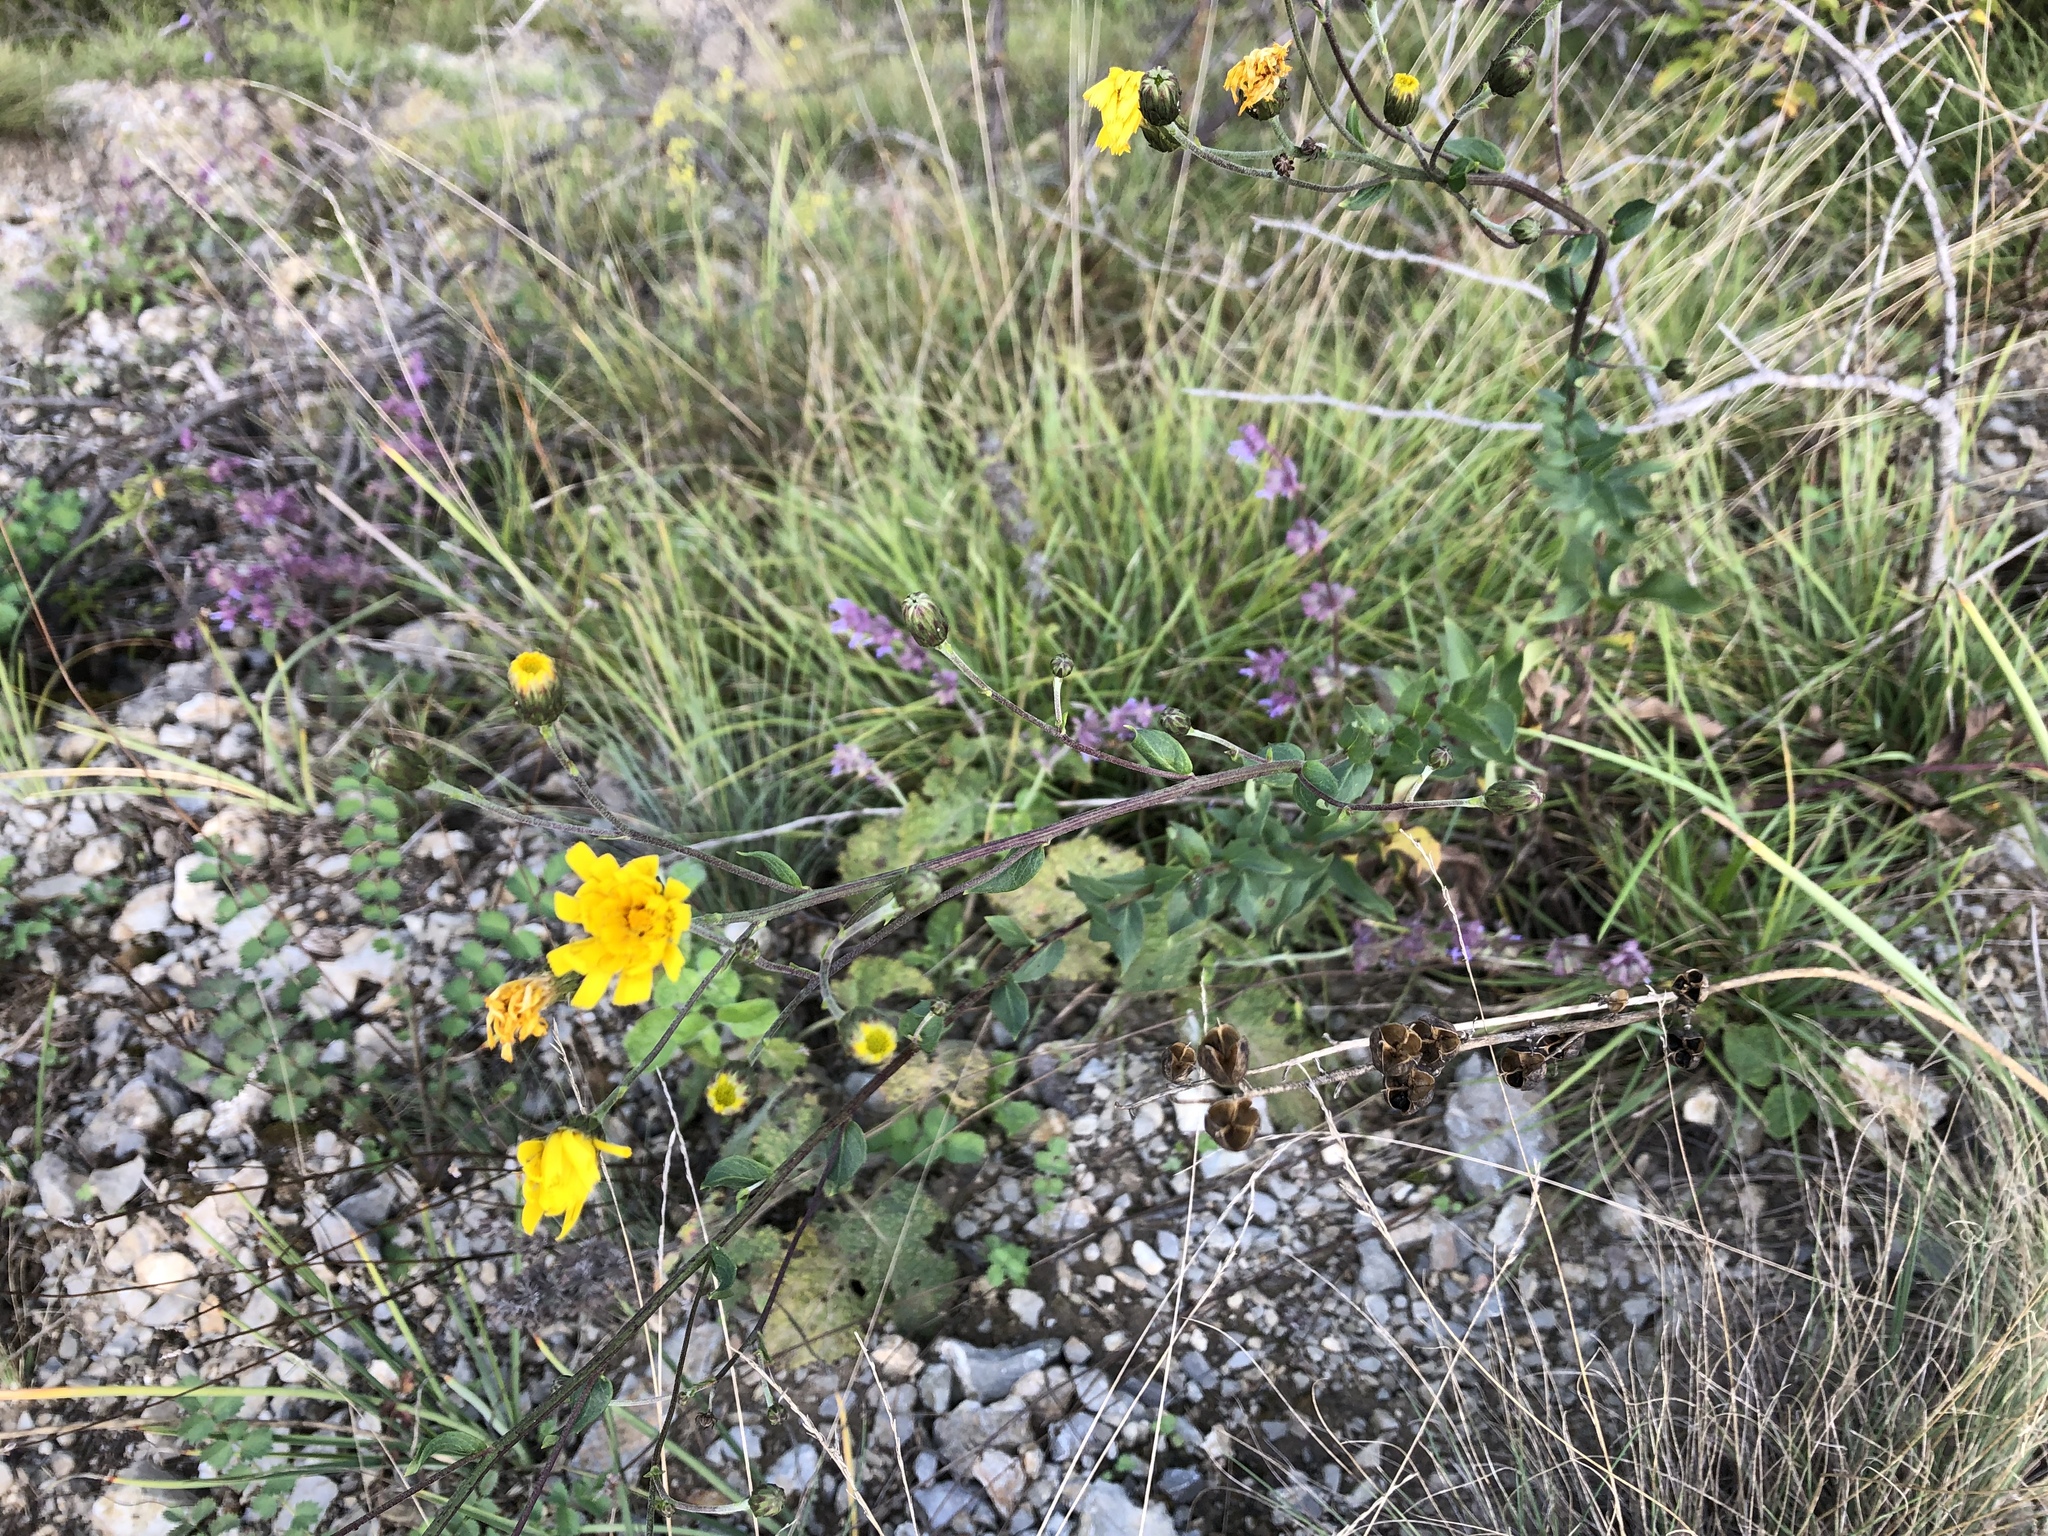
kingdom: Plantae
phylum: Tracheophyta
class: Magnoliopsida
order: Asterales
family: Asteraceae
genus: Hieracium
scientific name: Hieracium sabaudum
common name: New england hawkweed
